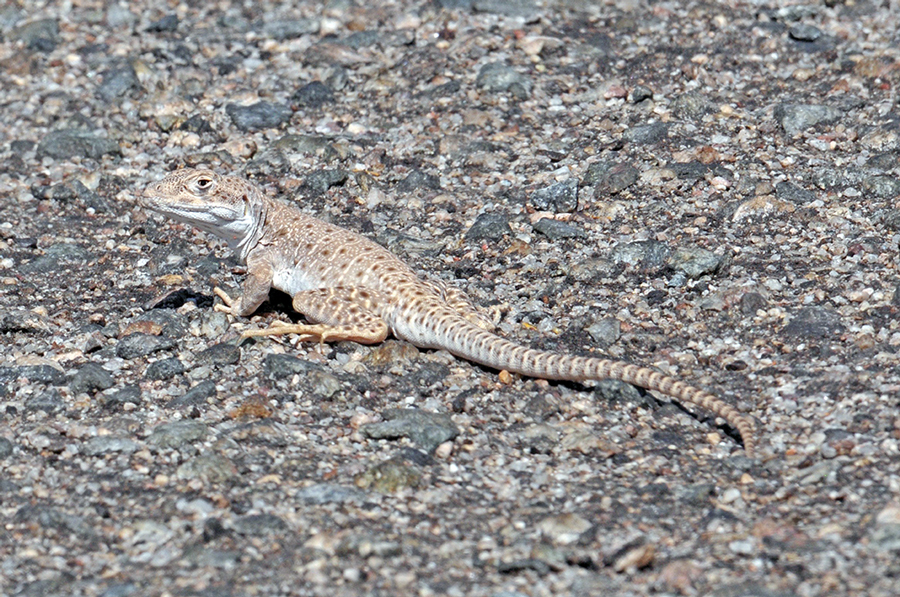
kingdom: Animalia
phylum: Chordata
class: Squamata
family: Crotaphytidae
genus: Gambelia
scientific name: Gambelia wislizenii
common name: Longnose leopard lizard
